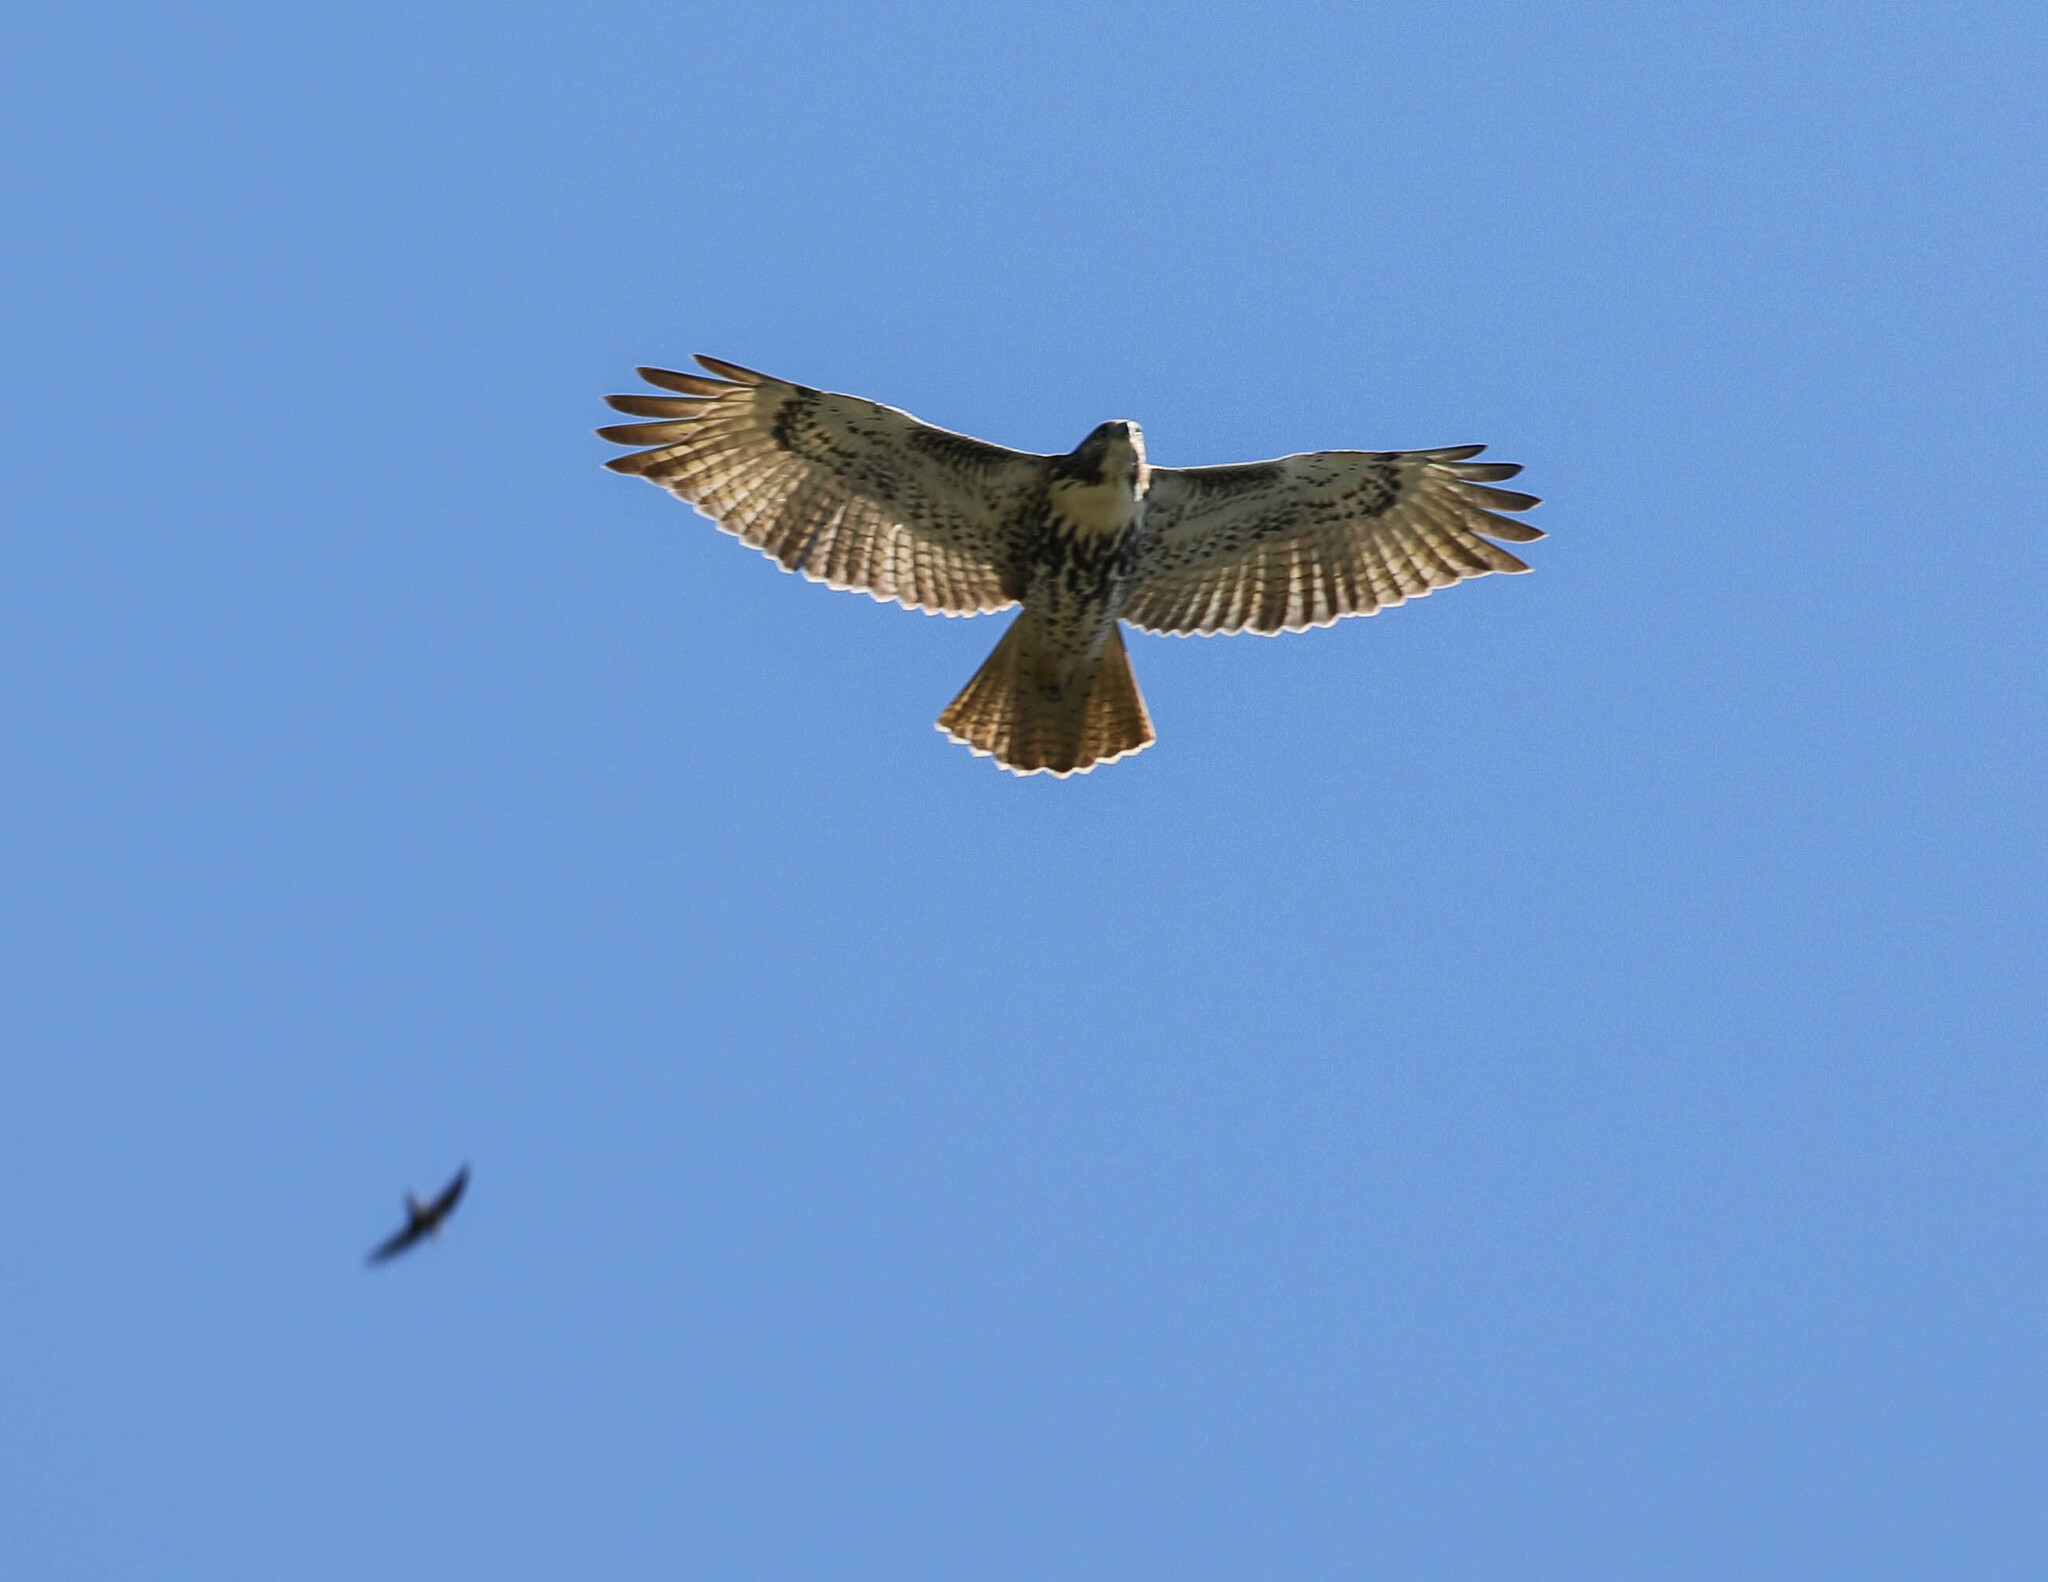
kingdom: Animalia
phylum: Chordata
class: Aves
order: Accipitriformes
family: Accipitridae
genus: Buteo
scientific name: Buteo jamaicensis
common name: Red-tailed hawk
